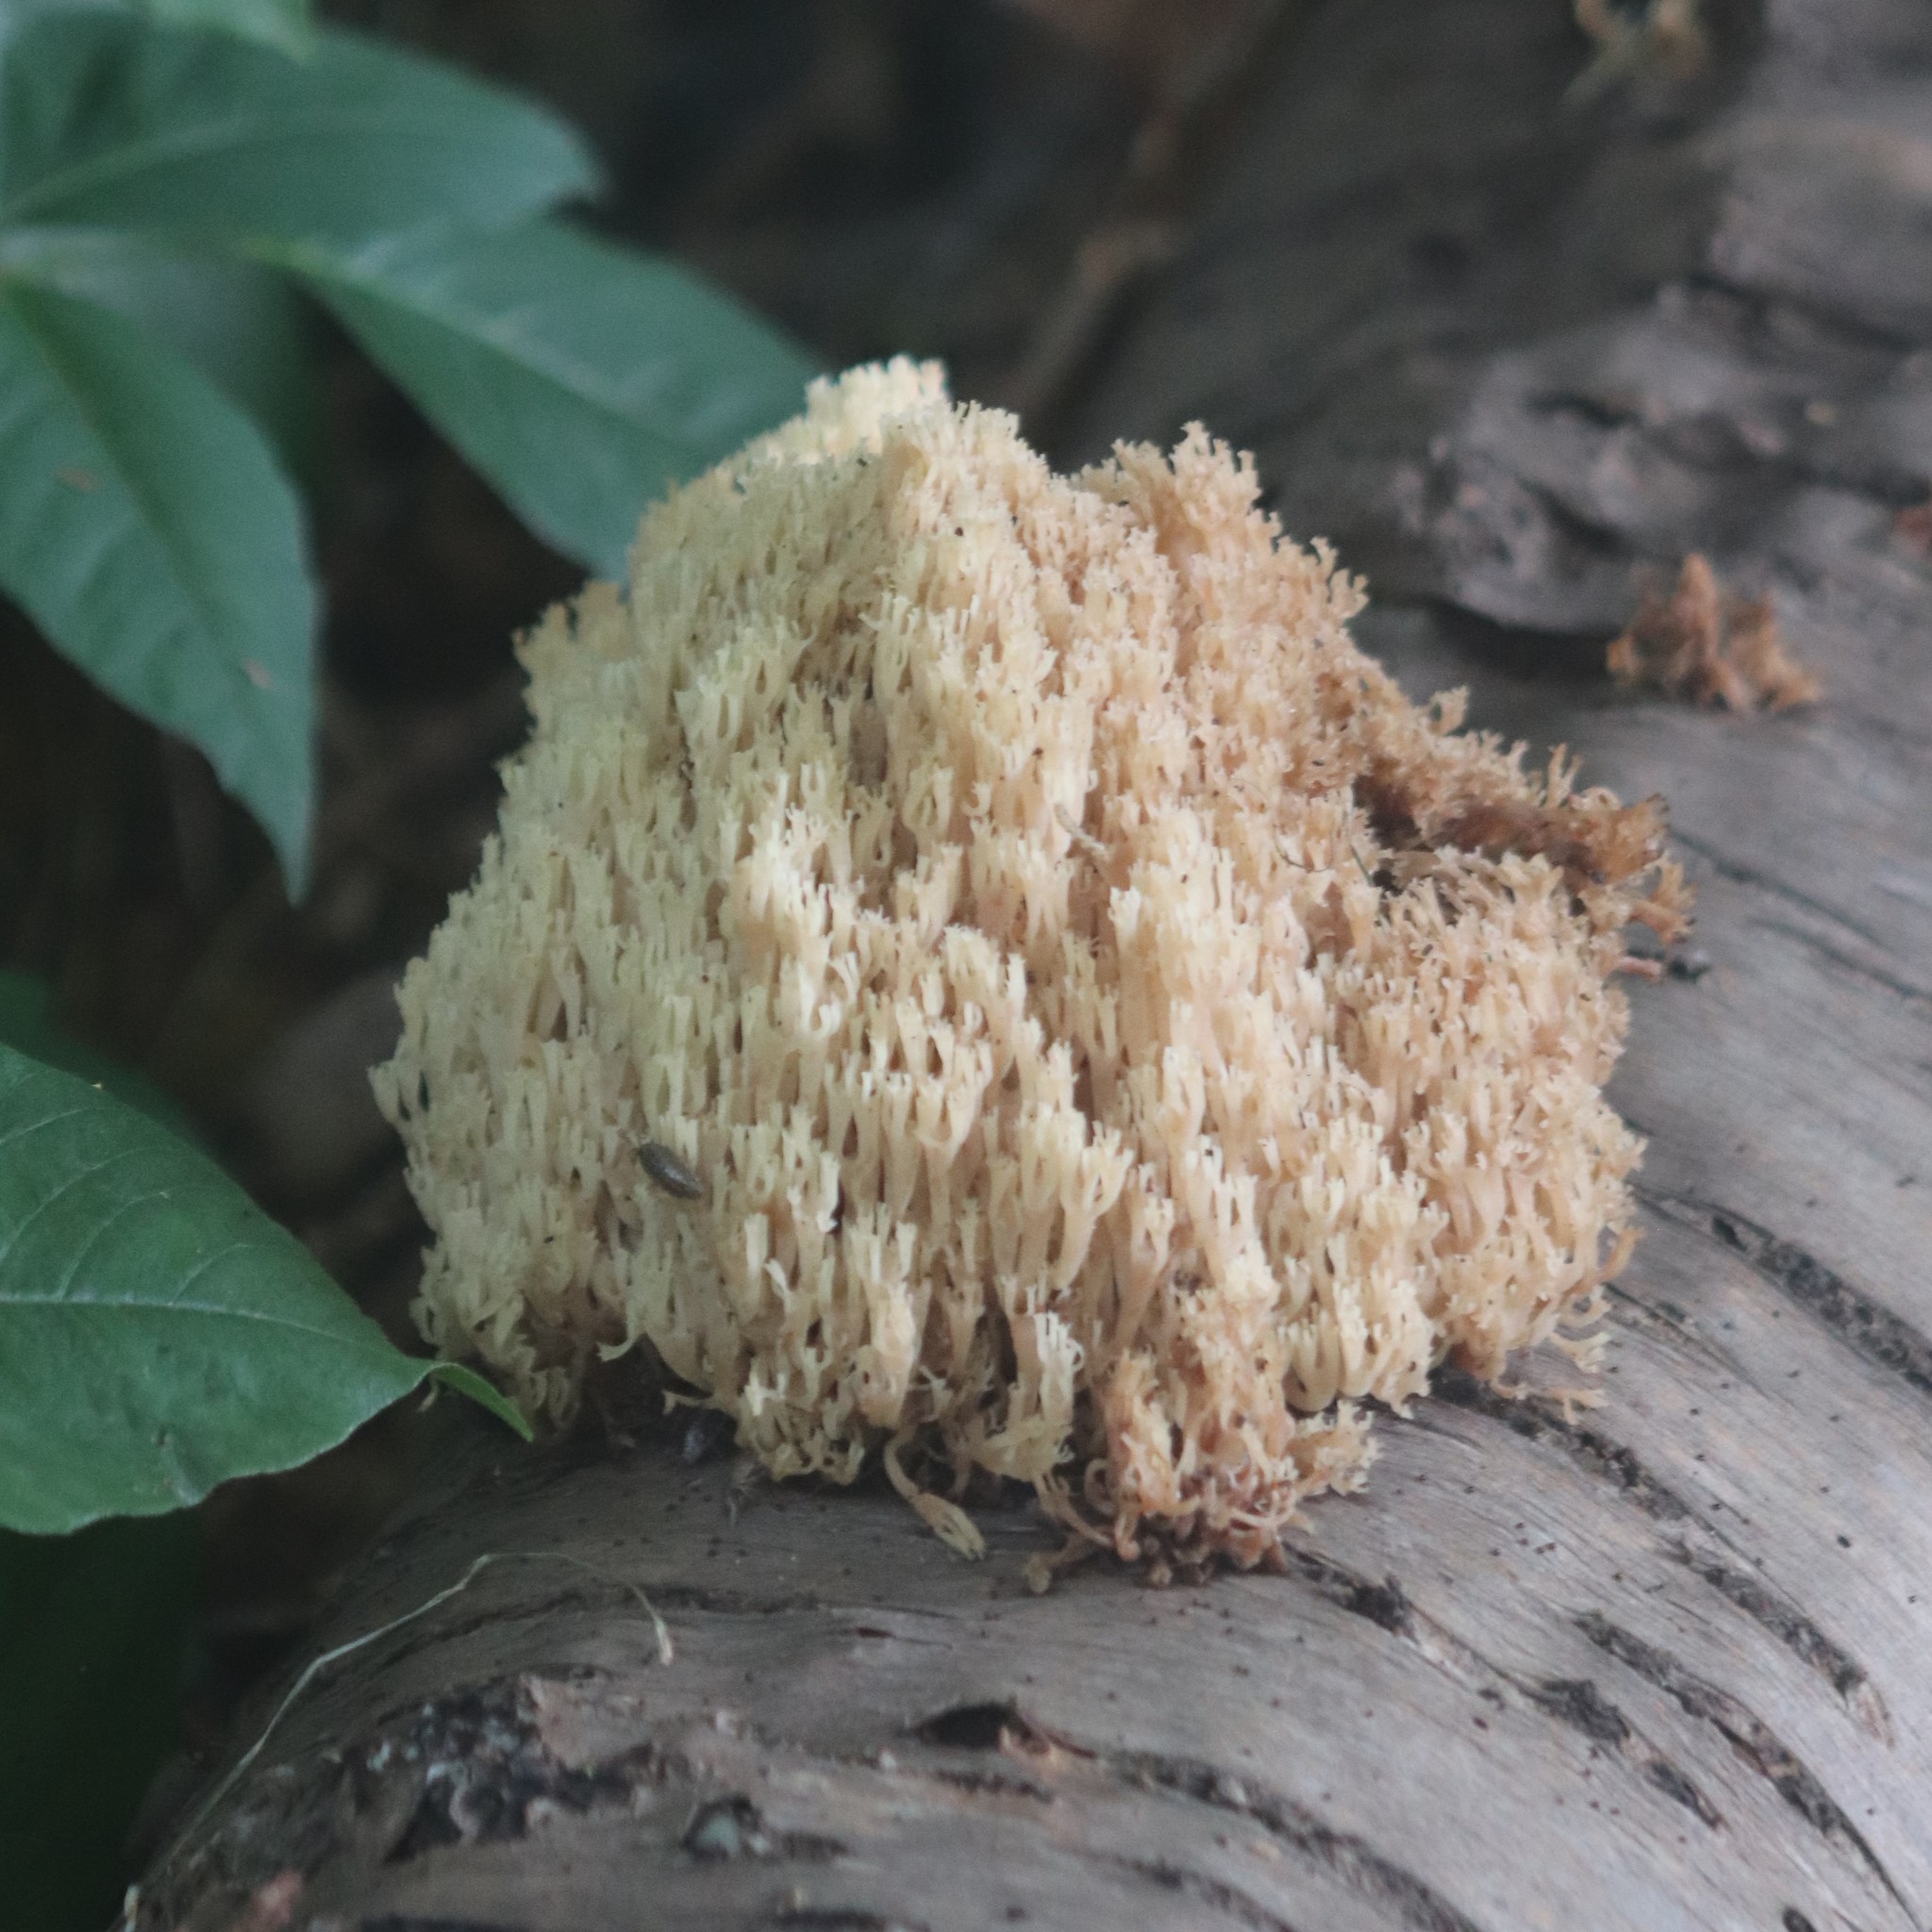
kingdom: Fungi
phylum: Basidiomycota
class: Agaricomycetes
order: Russulales
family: Auriscalpiaceae
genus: Artomyces
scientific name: Artomyces pyxidatus
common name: Crown-tipped coral fungus
